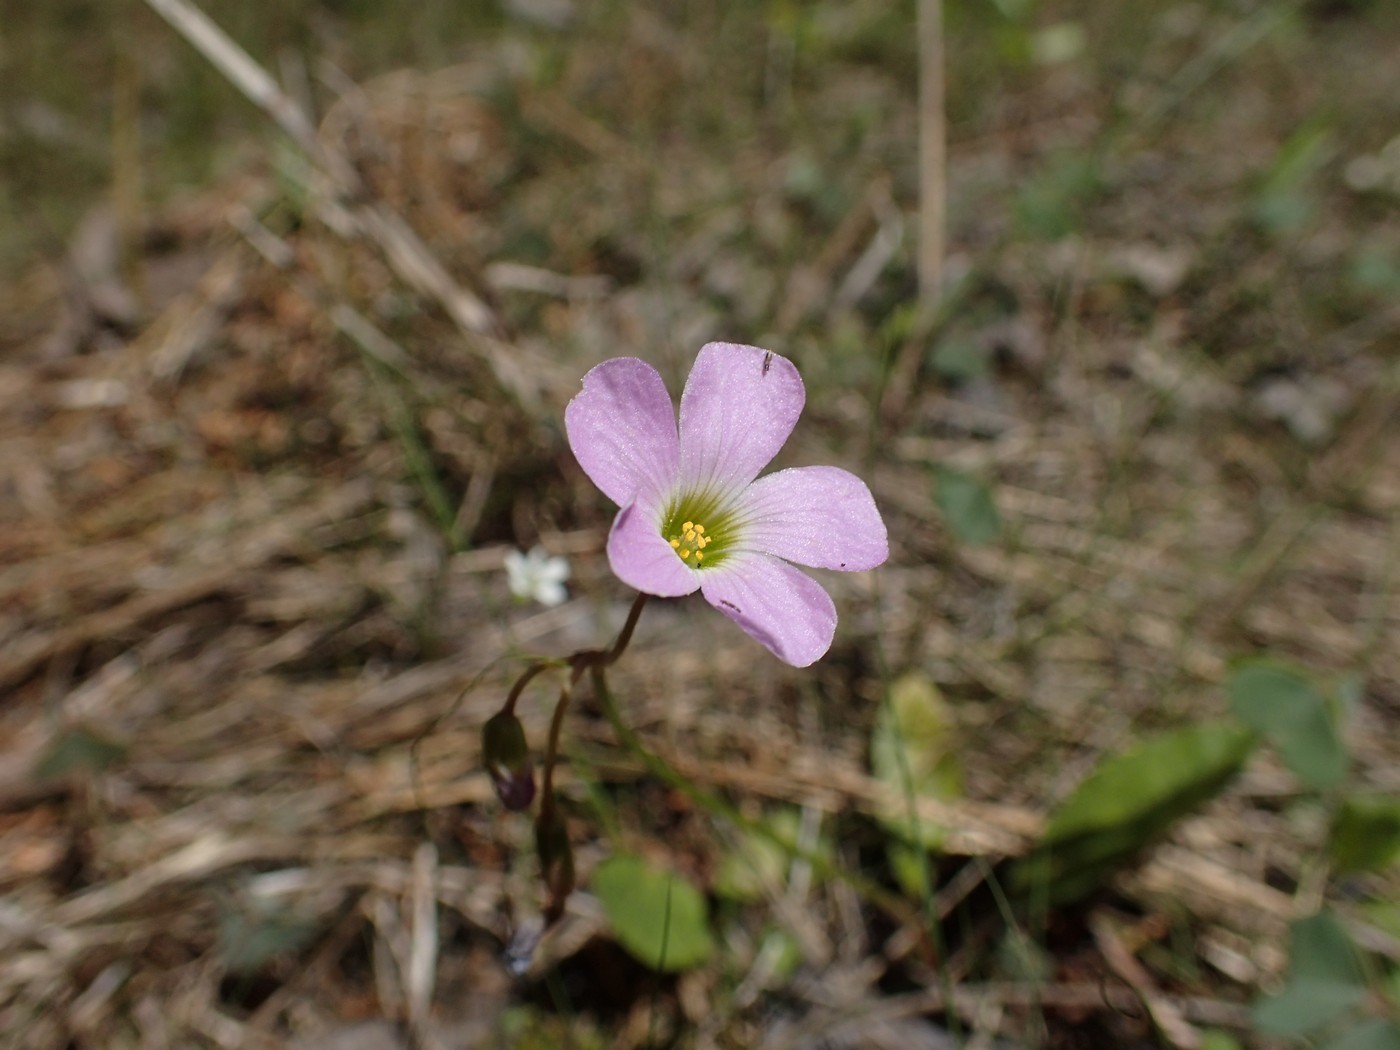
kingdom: Plantae
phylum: Tracheophyta
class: Magnoliopsida
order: Oxalidales
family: Oxalidaceae
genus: Oxalis
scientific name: Oxalis violacea
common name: Violet wood-sorrel
